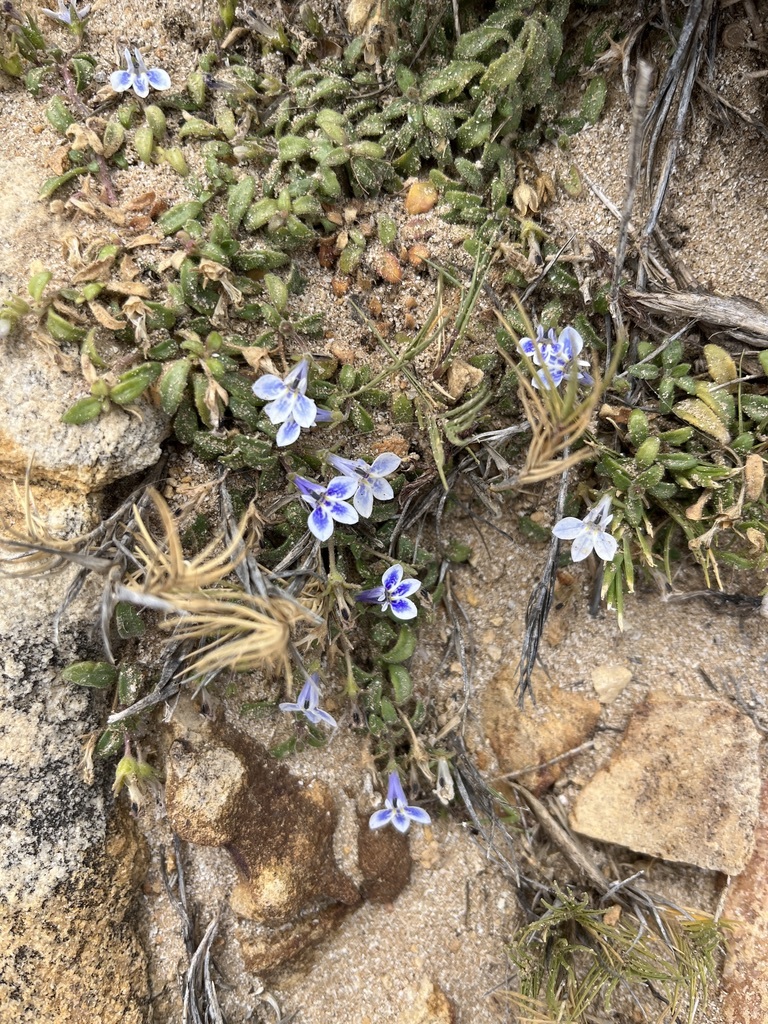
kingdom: Plantae
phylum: Tracheophyta
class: Magnoliopsida
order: Asterales
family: Campanulaceae
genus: Lobelia
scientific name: Lobelia boivinii
